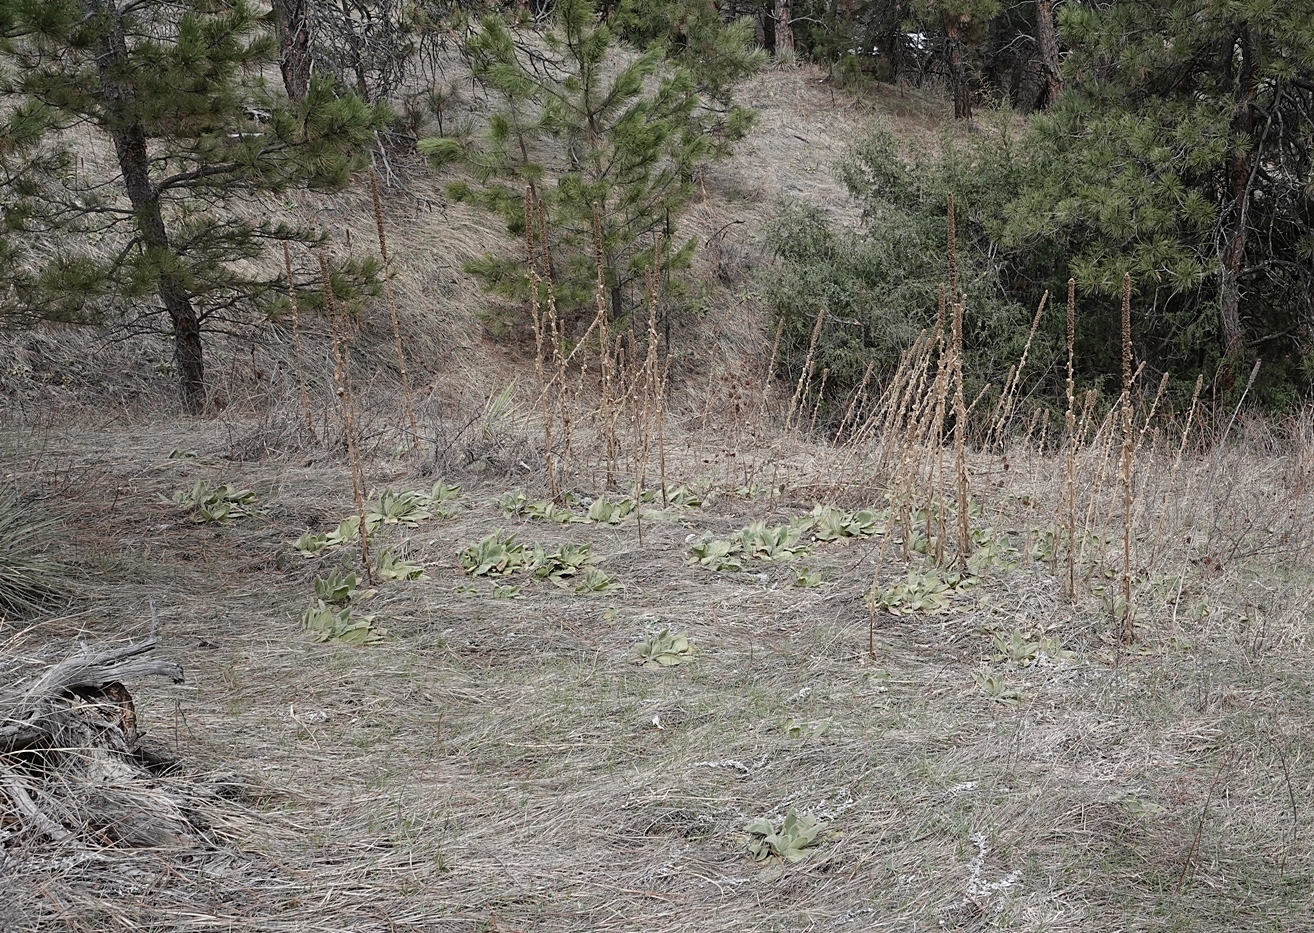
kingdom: Plantae
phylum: Tracheophyta
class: Magnoliopsida
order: Lamiales
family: Scrophulariaceae
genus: Verbascum
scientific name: Verbascum thapsus
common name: Common mullein
